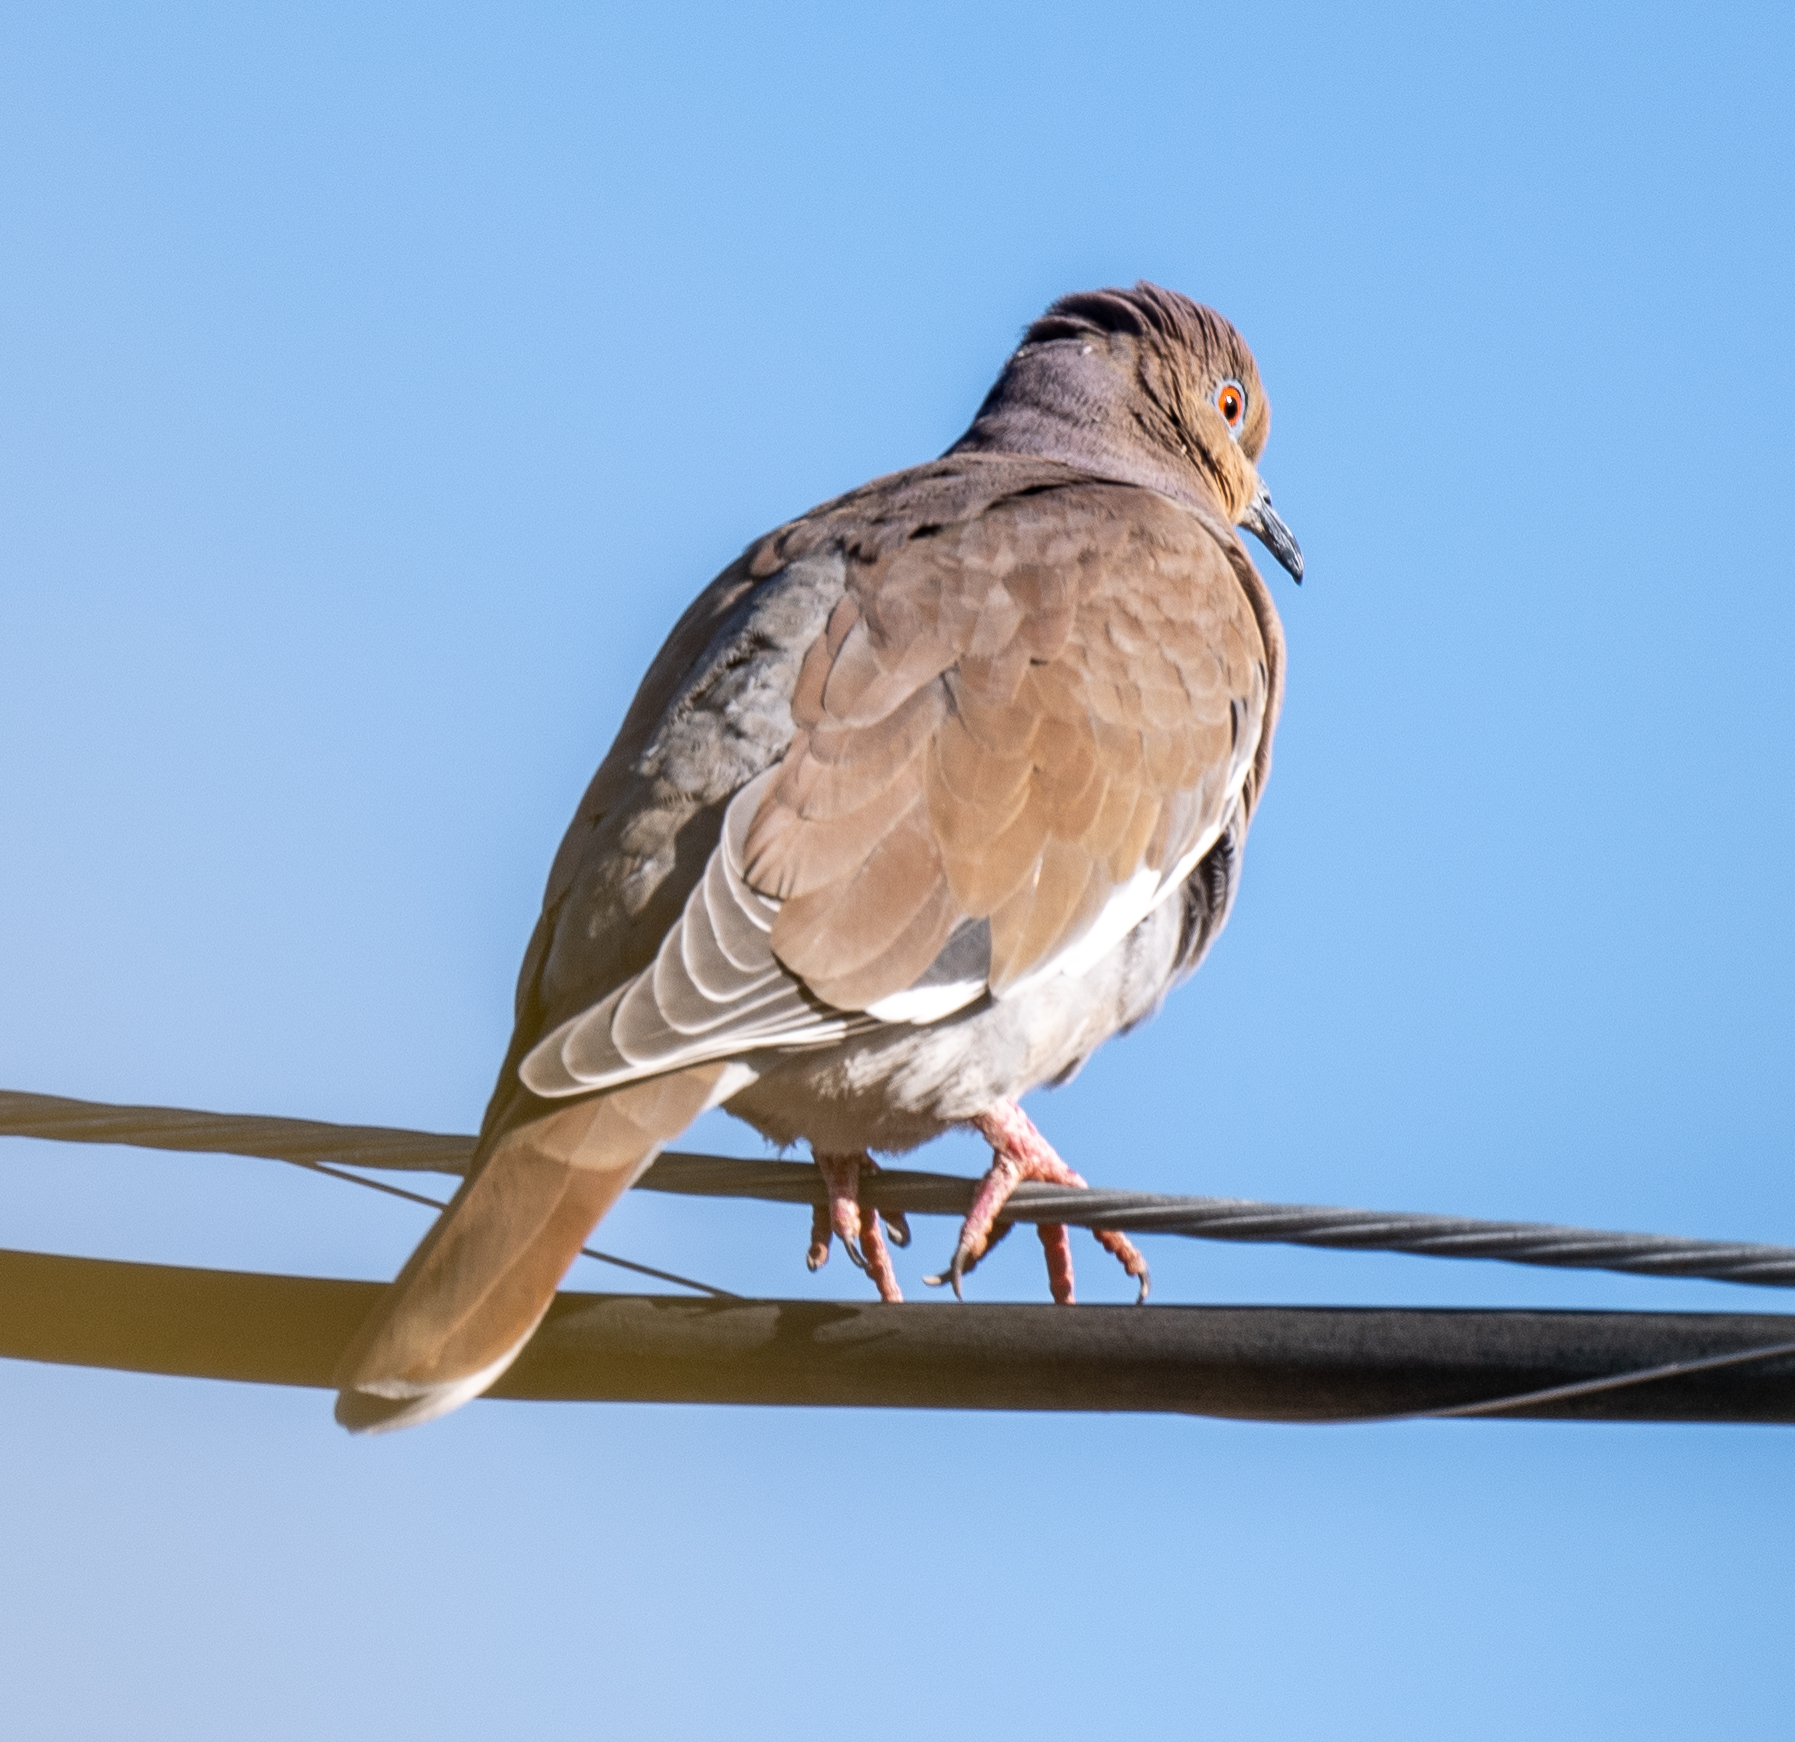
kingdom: Animalia
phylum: Chordata
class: Aves
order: Columbiformes
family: Columbidae
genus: Zenaida
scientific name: Zenaida asiatica
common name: White-winged dove
